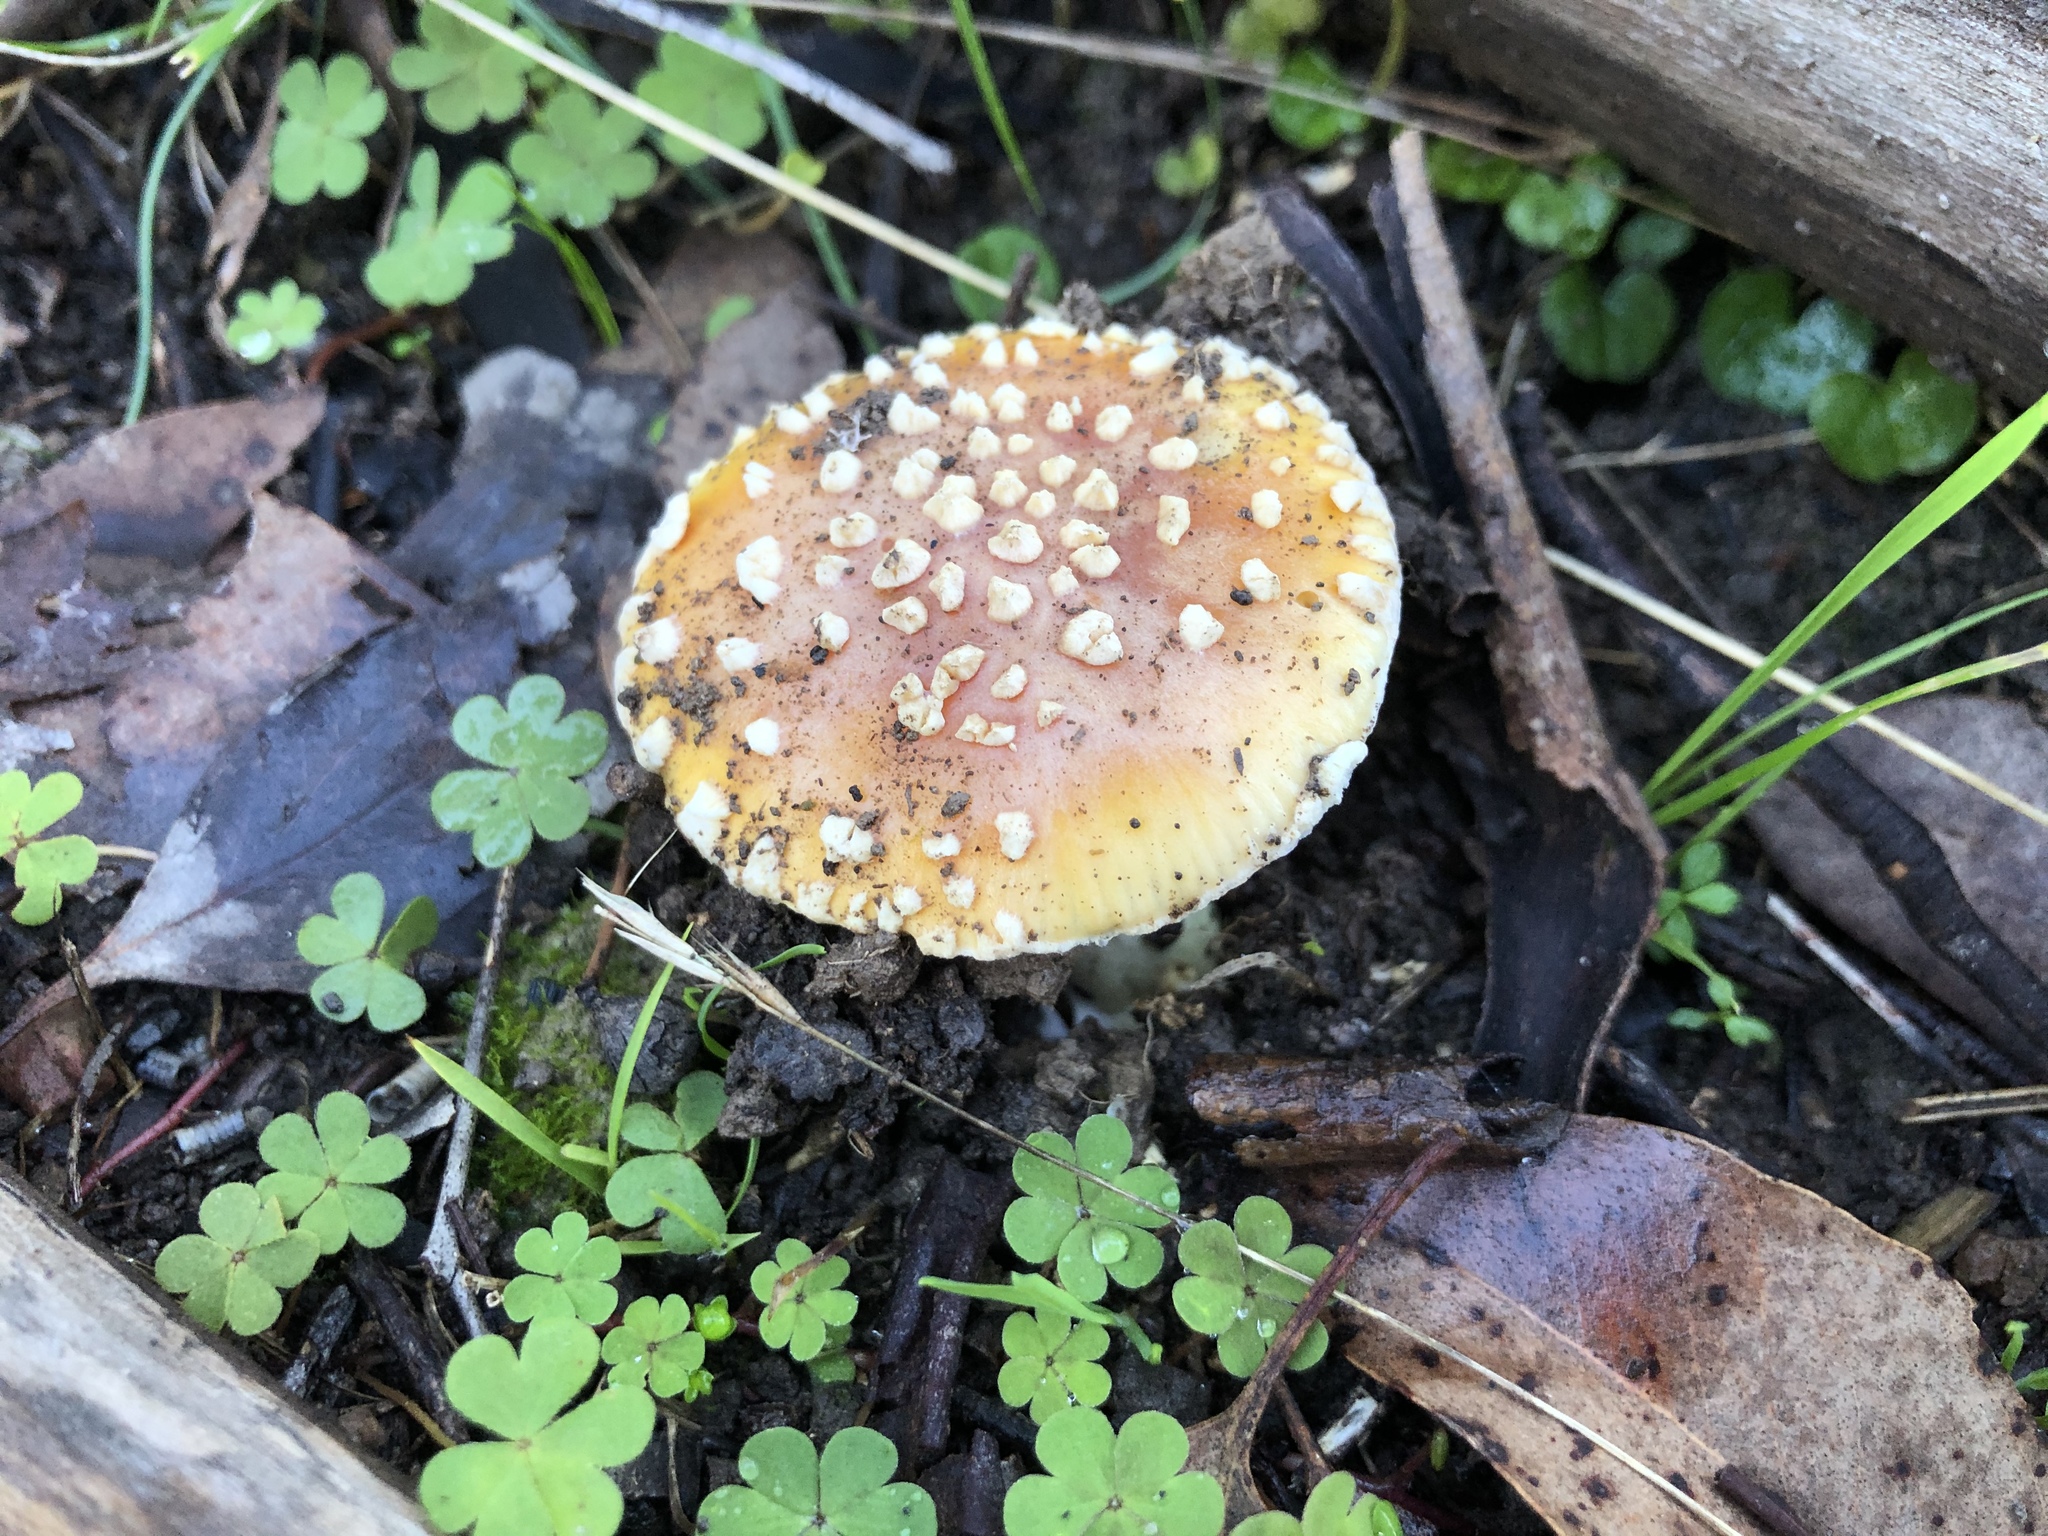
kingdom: Fungi
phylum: Basidiomycota
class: Agaricomycetes
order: Agaricales
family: Amanitaceae
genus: Amanita
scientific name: Amanita xanthocephala
